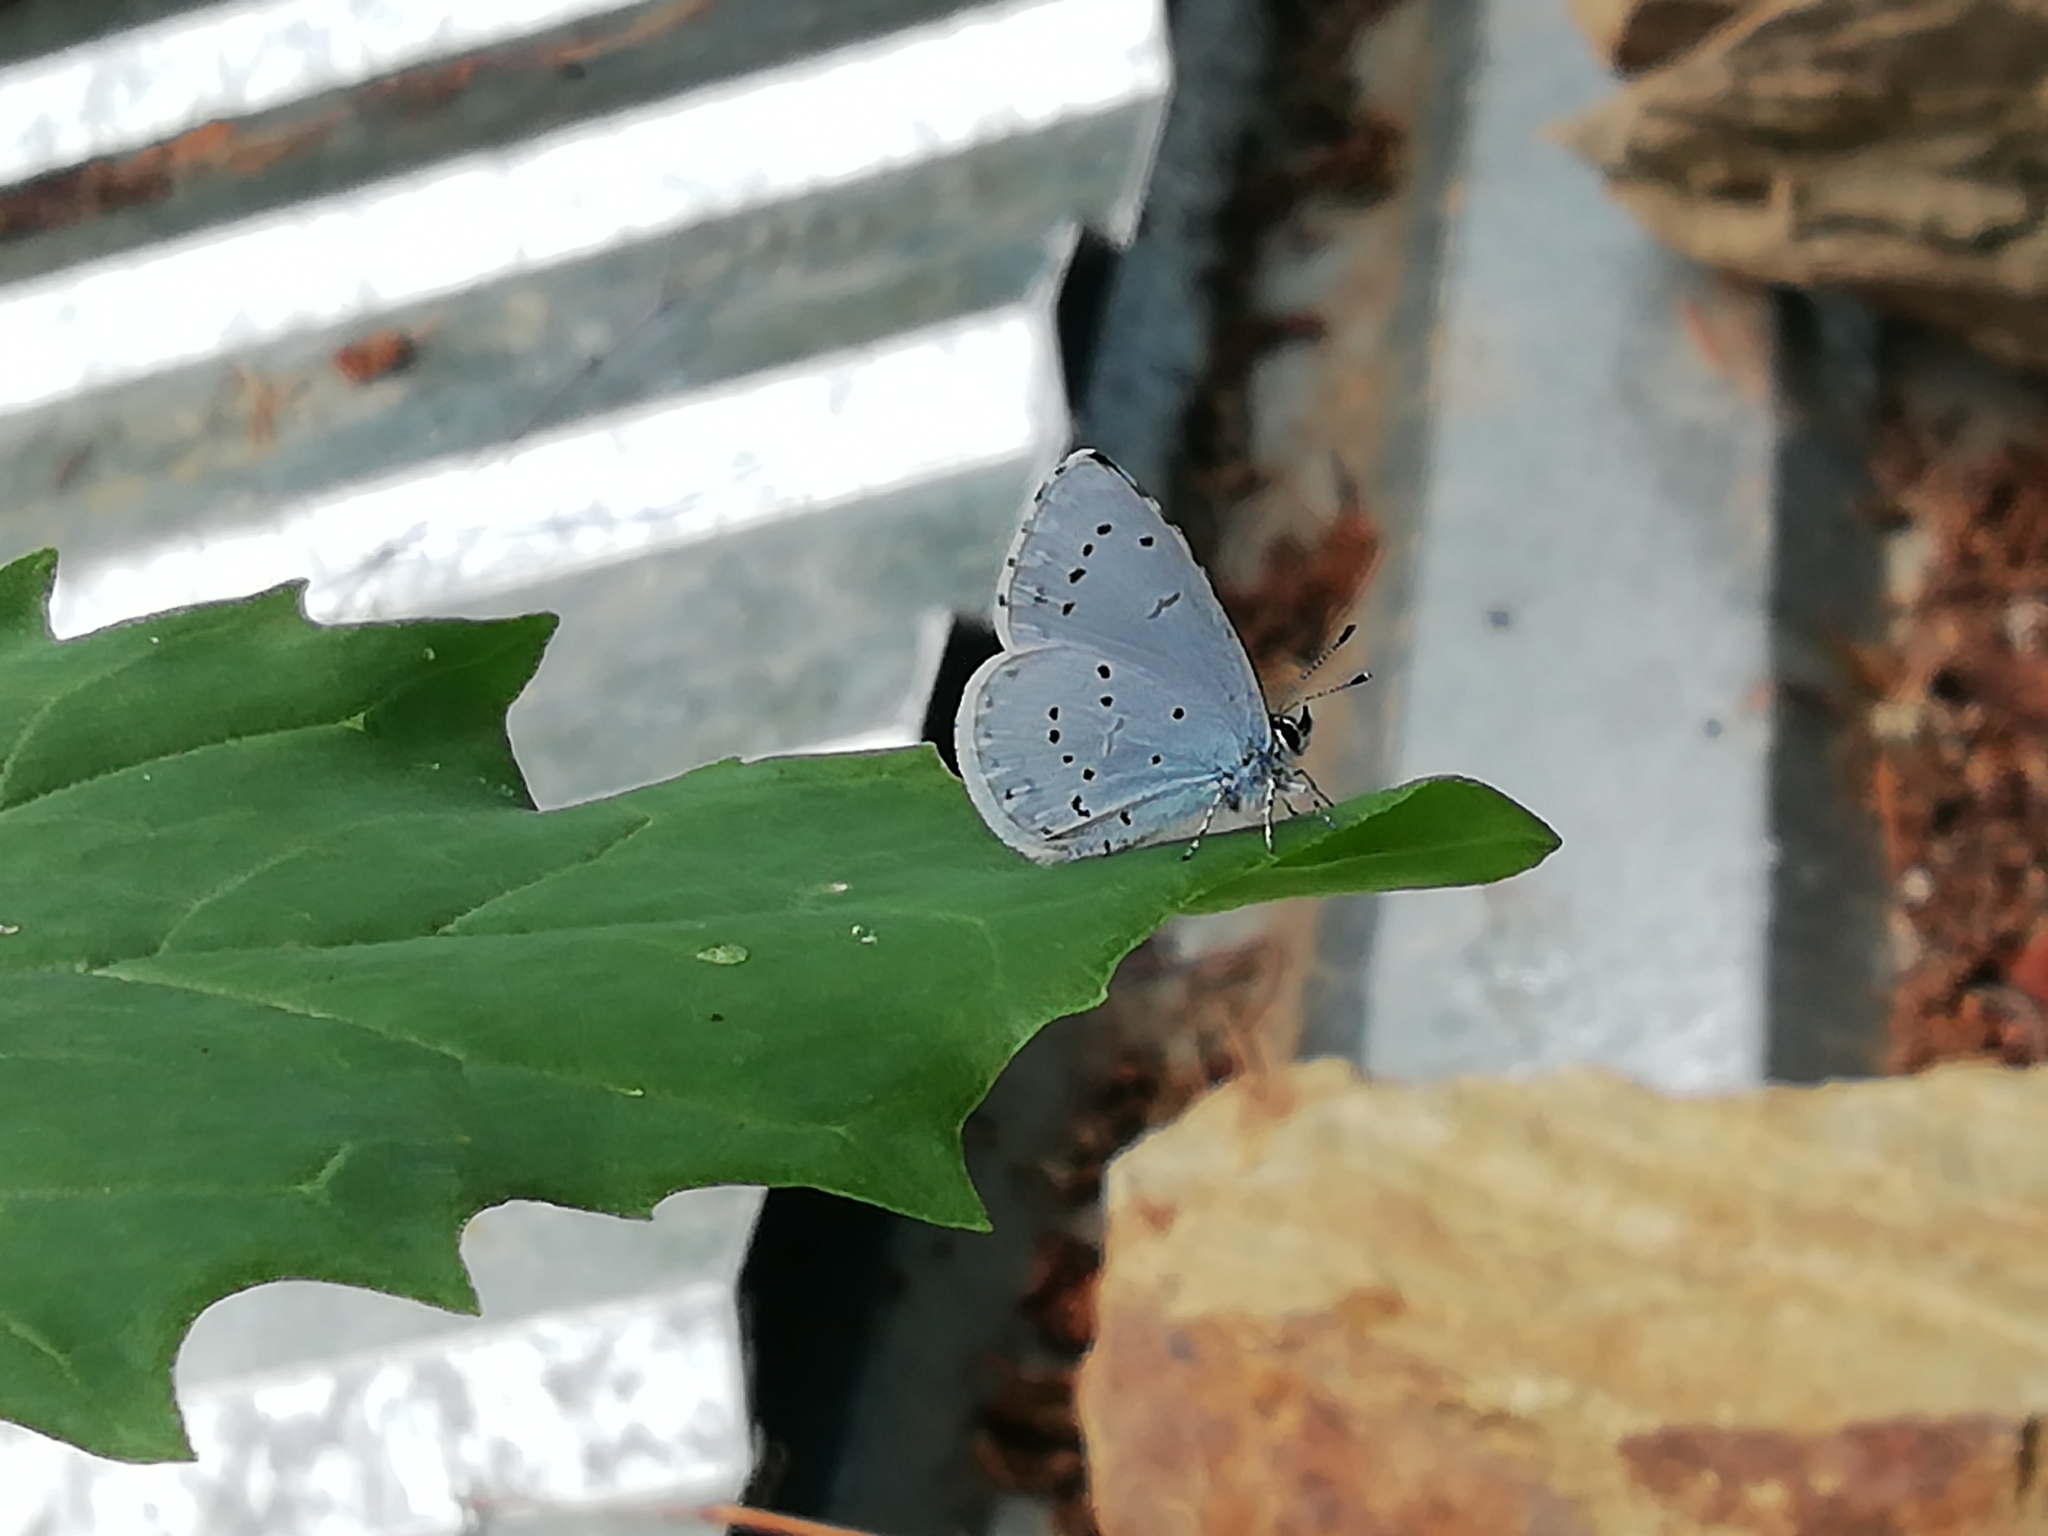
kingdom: Animalia
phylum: Arthropoda
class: Insecta
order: Lepidoptera
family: Lycaenidae
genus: Celastrina
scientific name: Celastrina argiolus
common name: Holly blue
